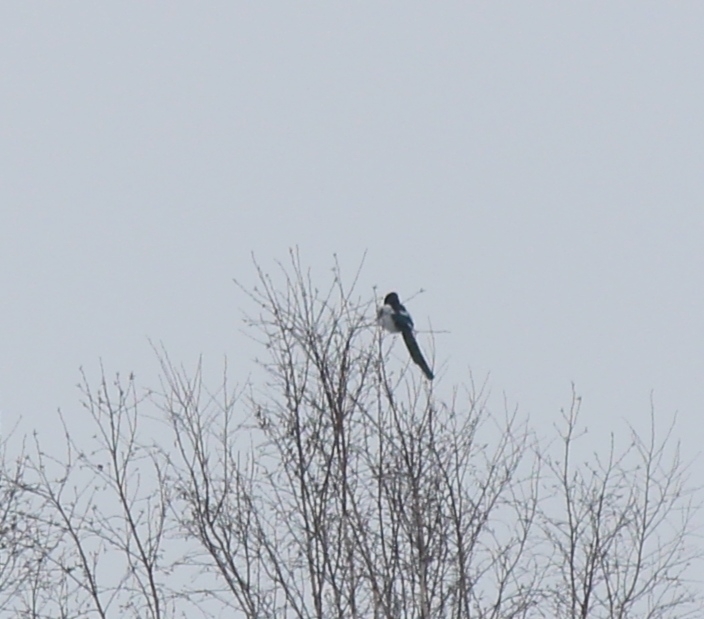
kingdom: Animalia
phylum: Chordata
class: Aves
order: Passeriformes
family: Corvidae
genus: Pica
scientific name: Pica pica
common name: Eurasian magpie
